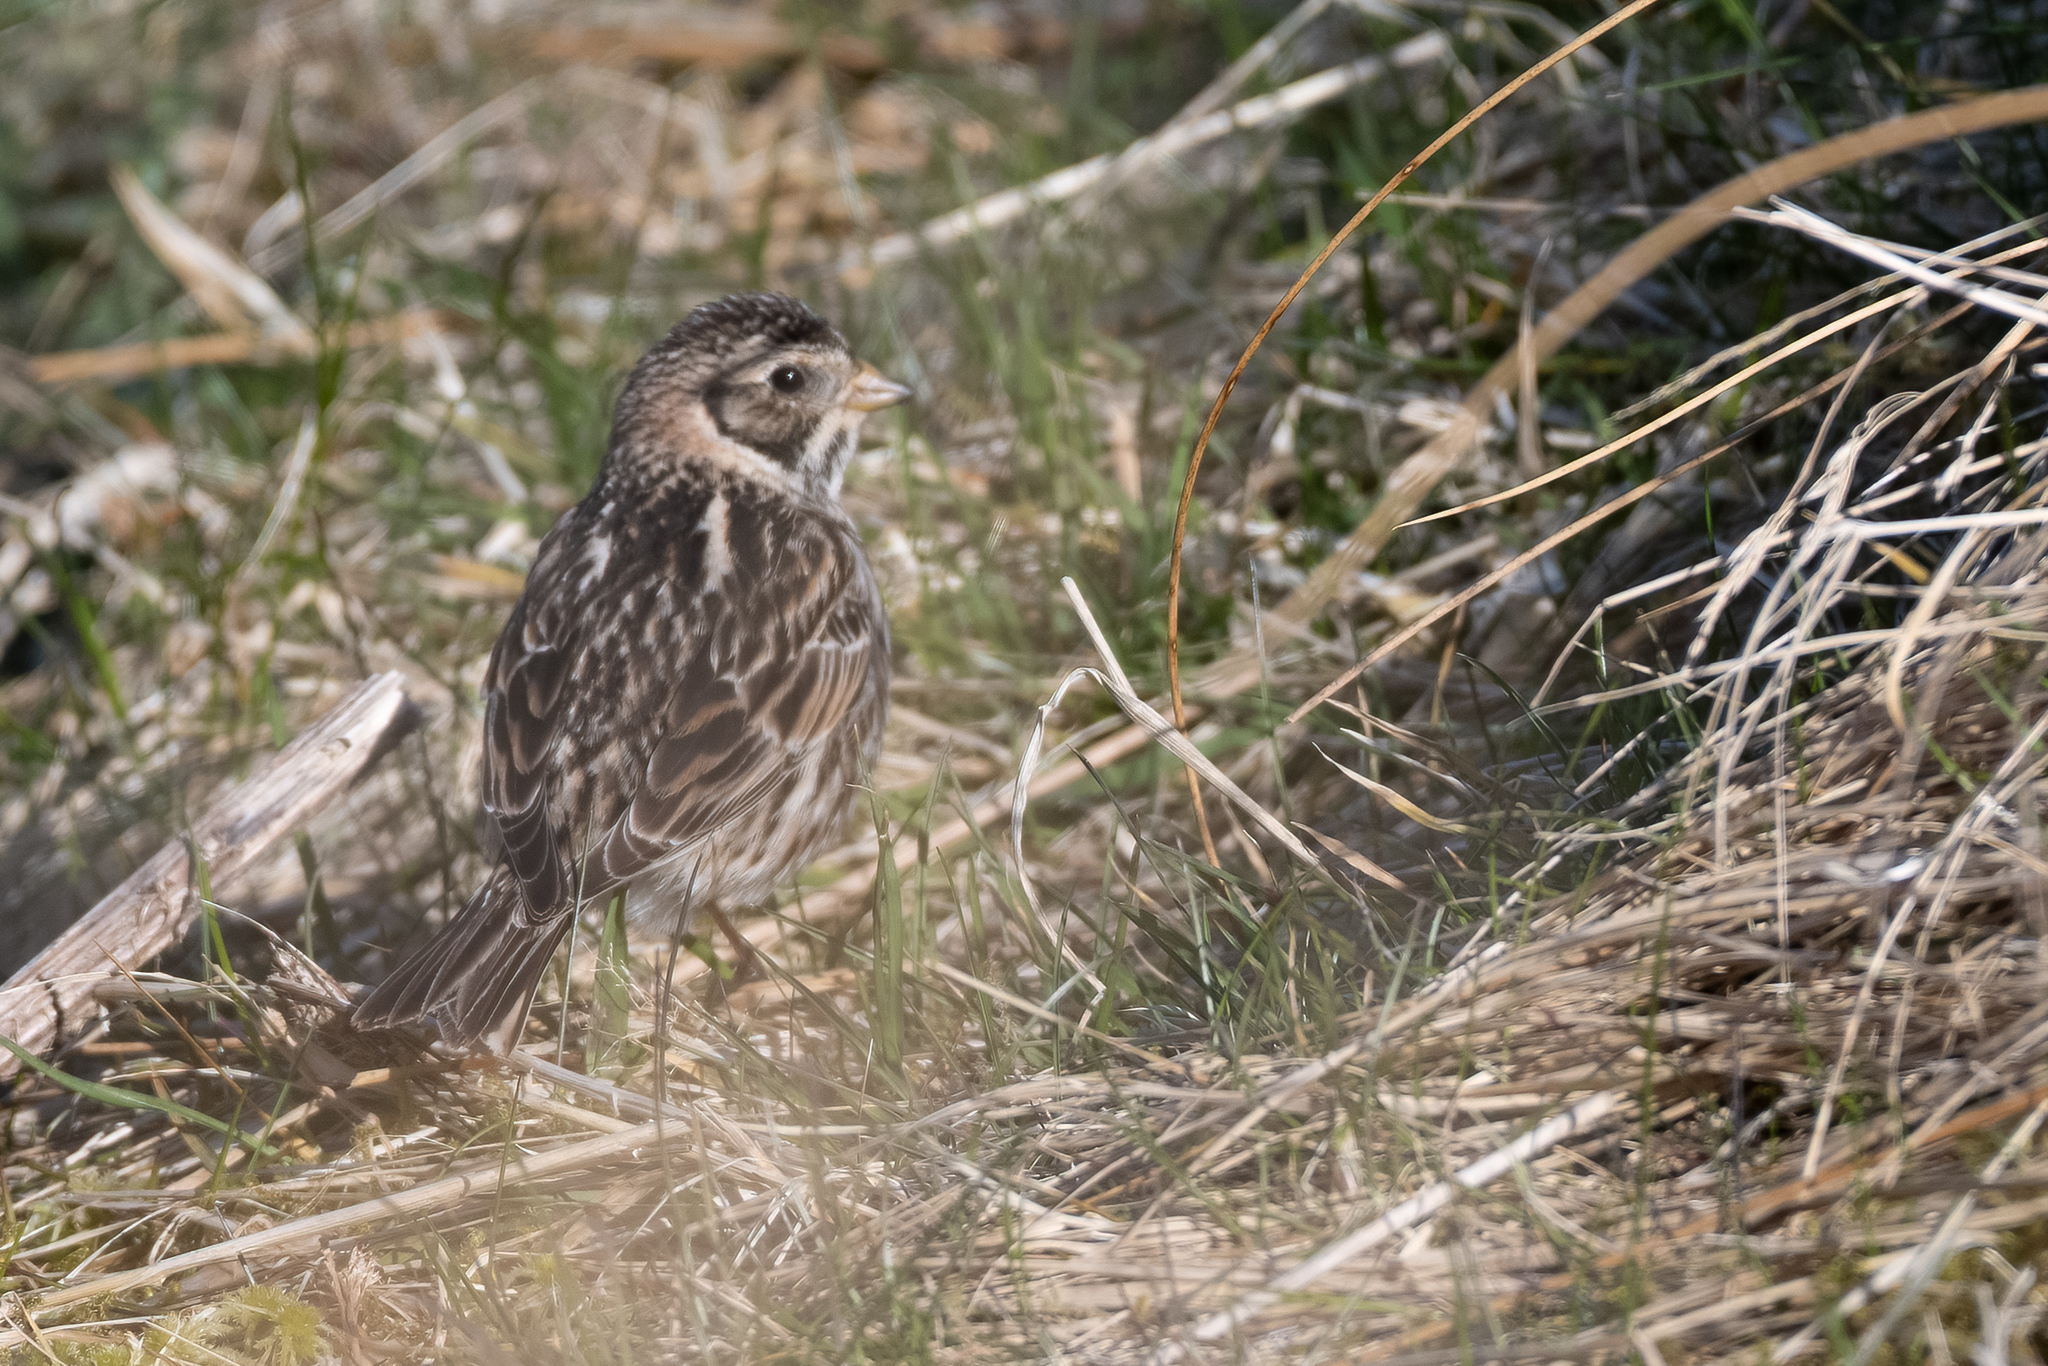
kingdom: Animalia
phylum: Chordata
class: Aves
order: Passeriformes
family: Calcariidae
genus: Calcarius
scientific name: Calcarius lapponicus
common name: Lapland longspur
